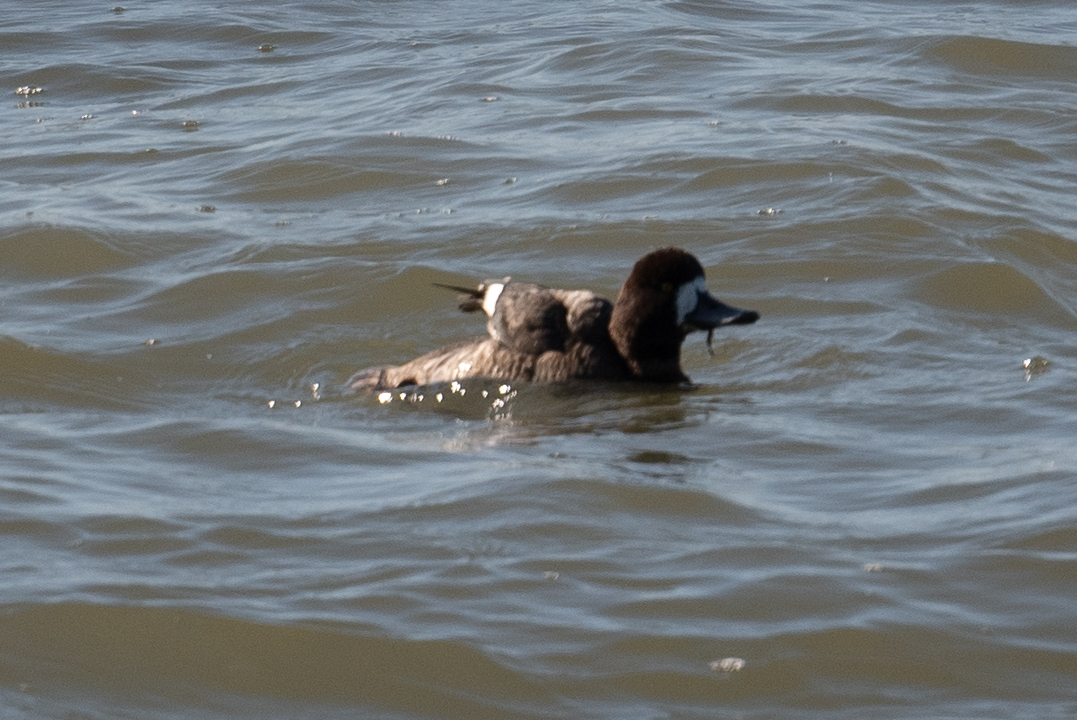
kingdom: Animalia
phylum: Chordata
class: Aves
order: Anseriformes
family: Anatidae
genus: Aythya
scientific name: Aythya marila
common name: Greater scaup
